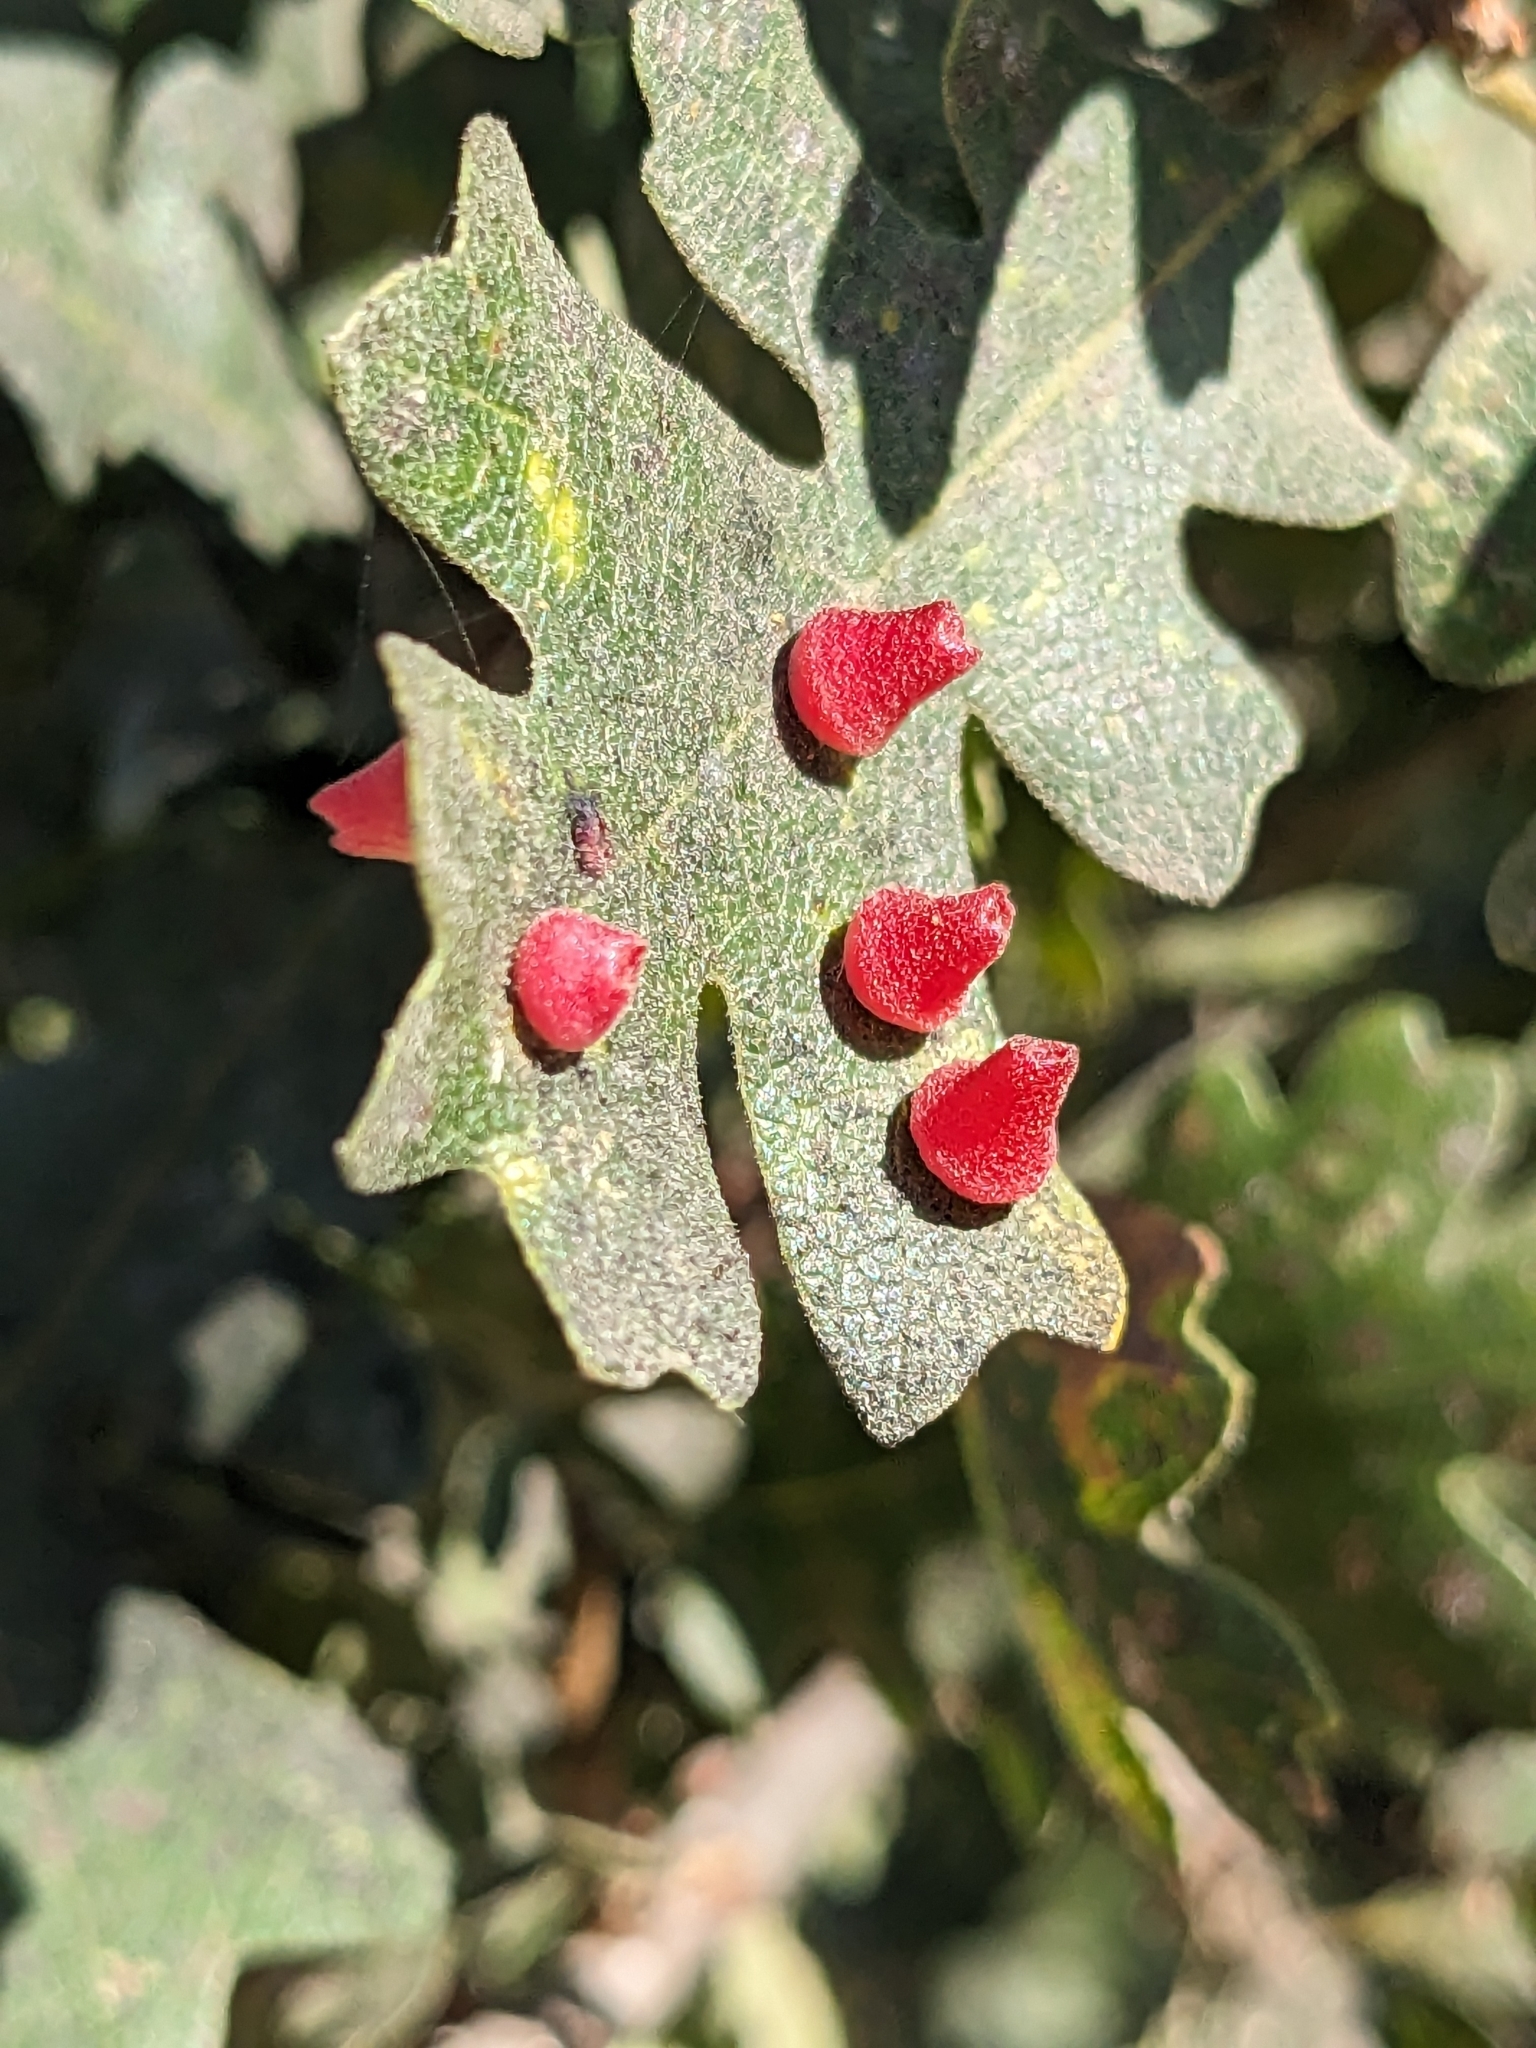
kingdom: Animalia
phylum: Arthropoda
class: Insecta
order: Hymenoptera
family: Cynipidae
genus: Andricus
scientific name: Andricus
